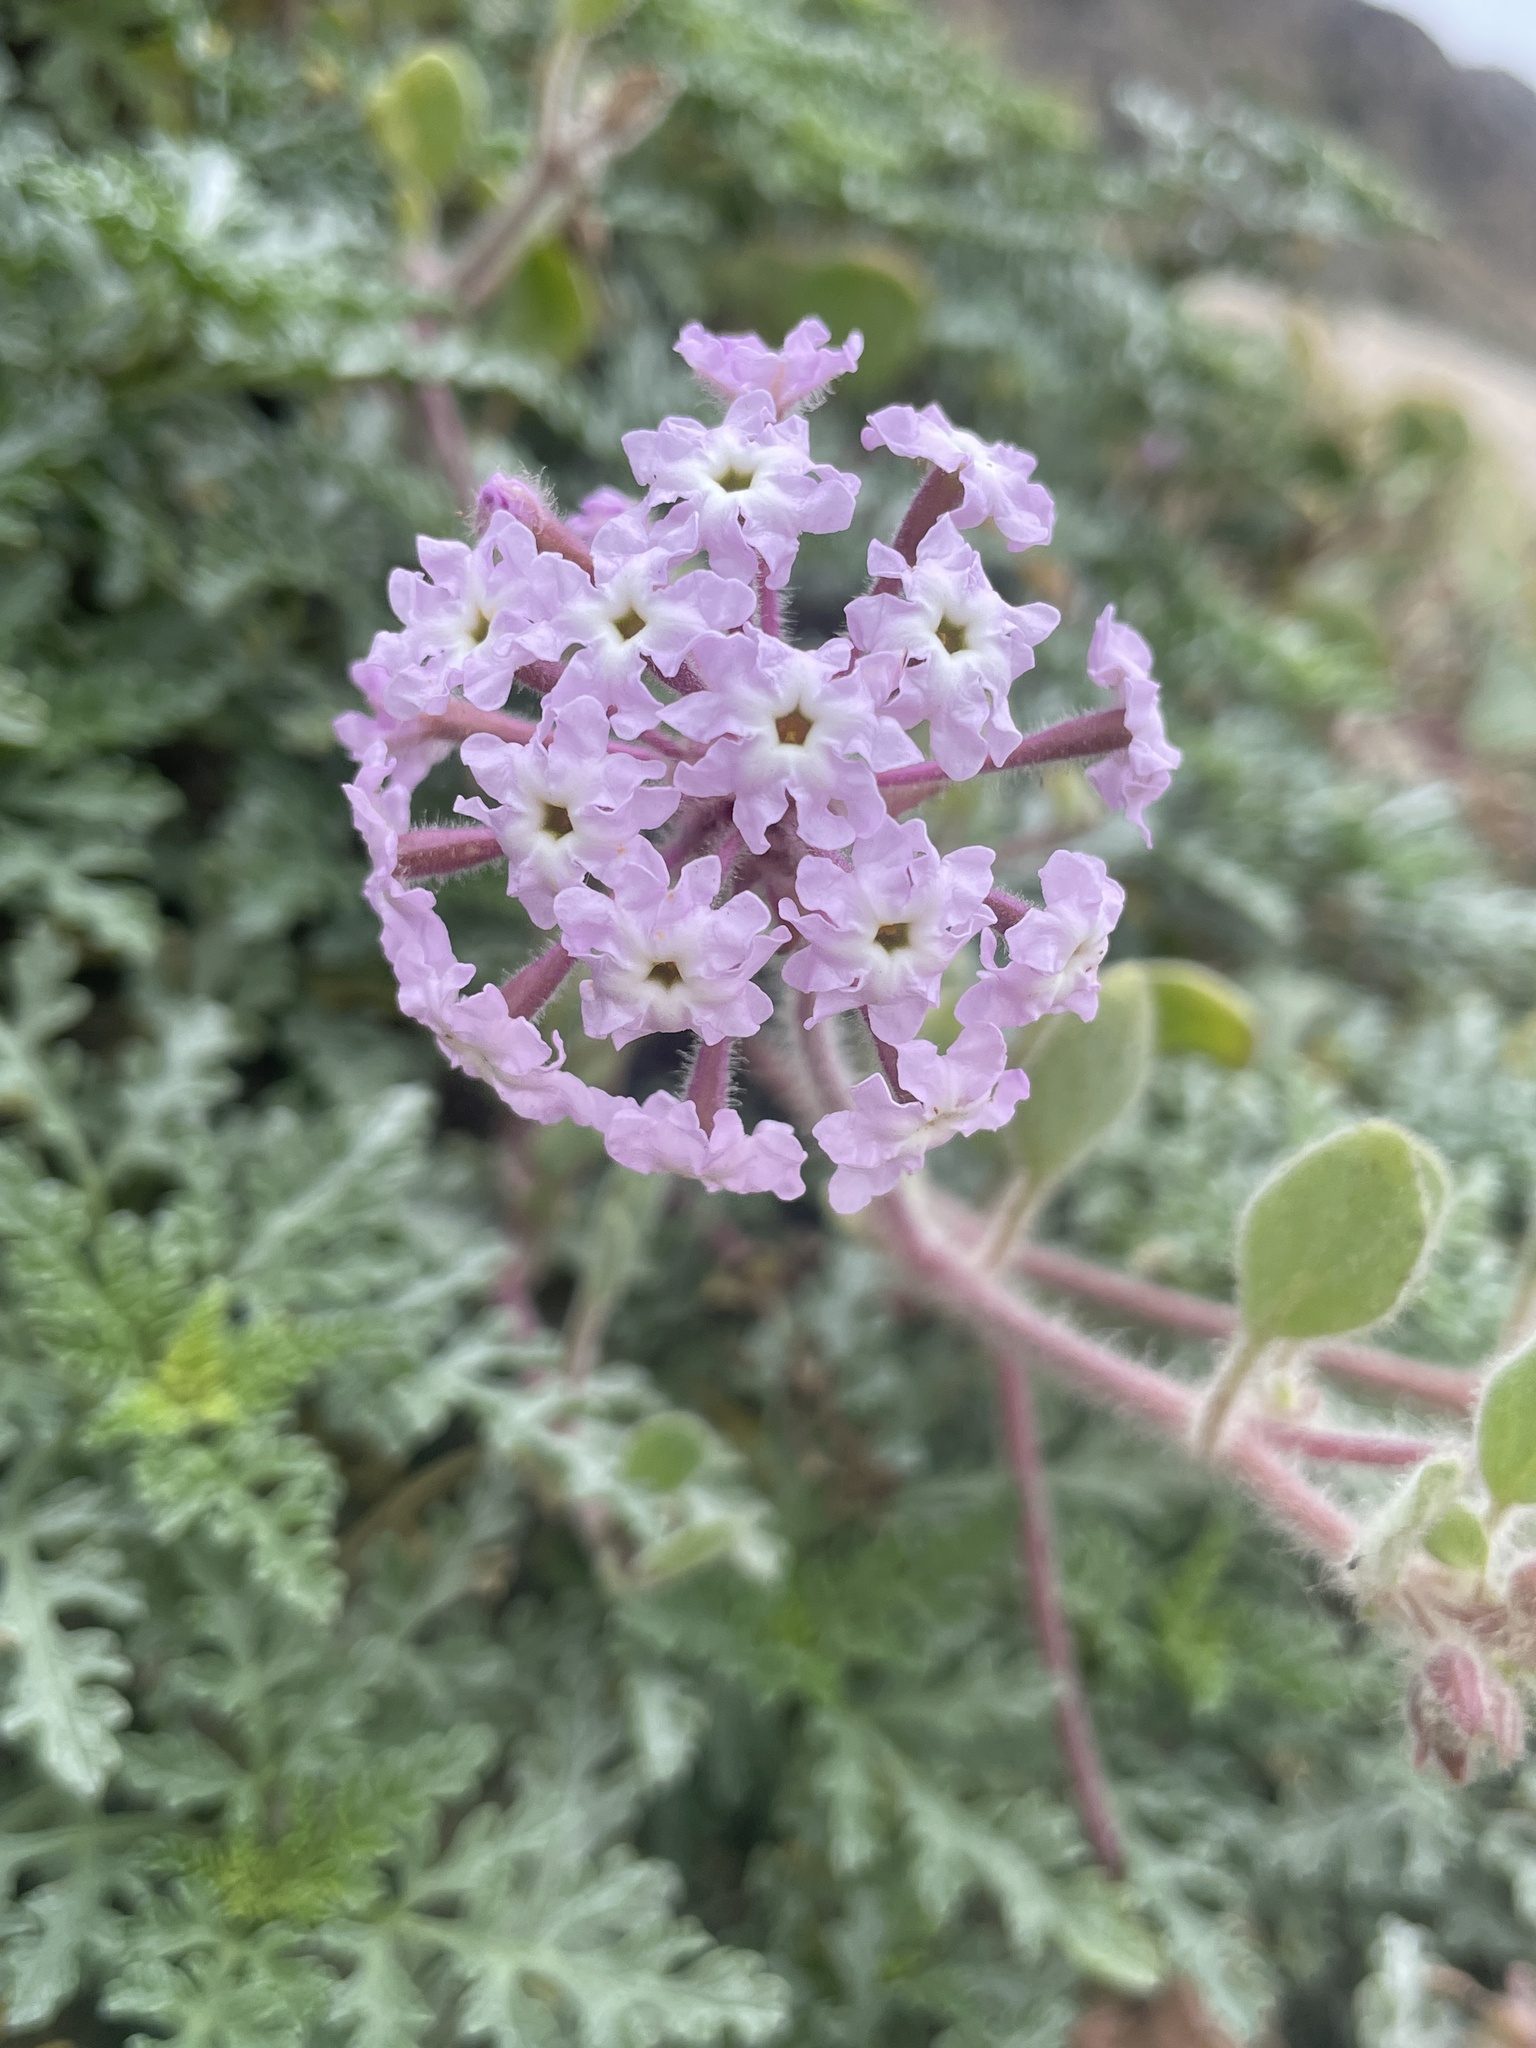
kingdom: Plantae
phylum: Tracheophyta
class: Magnoliopsida
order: Caryophyllales
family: Nyctaginaceae
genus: Abronia
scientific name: Abronia umbellata
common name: Sand-verbena
